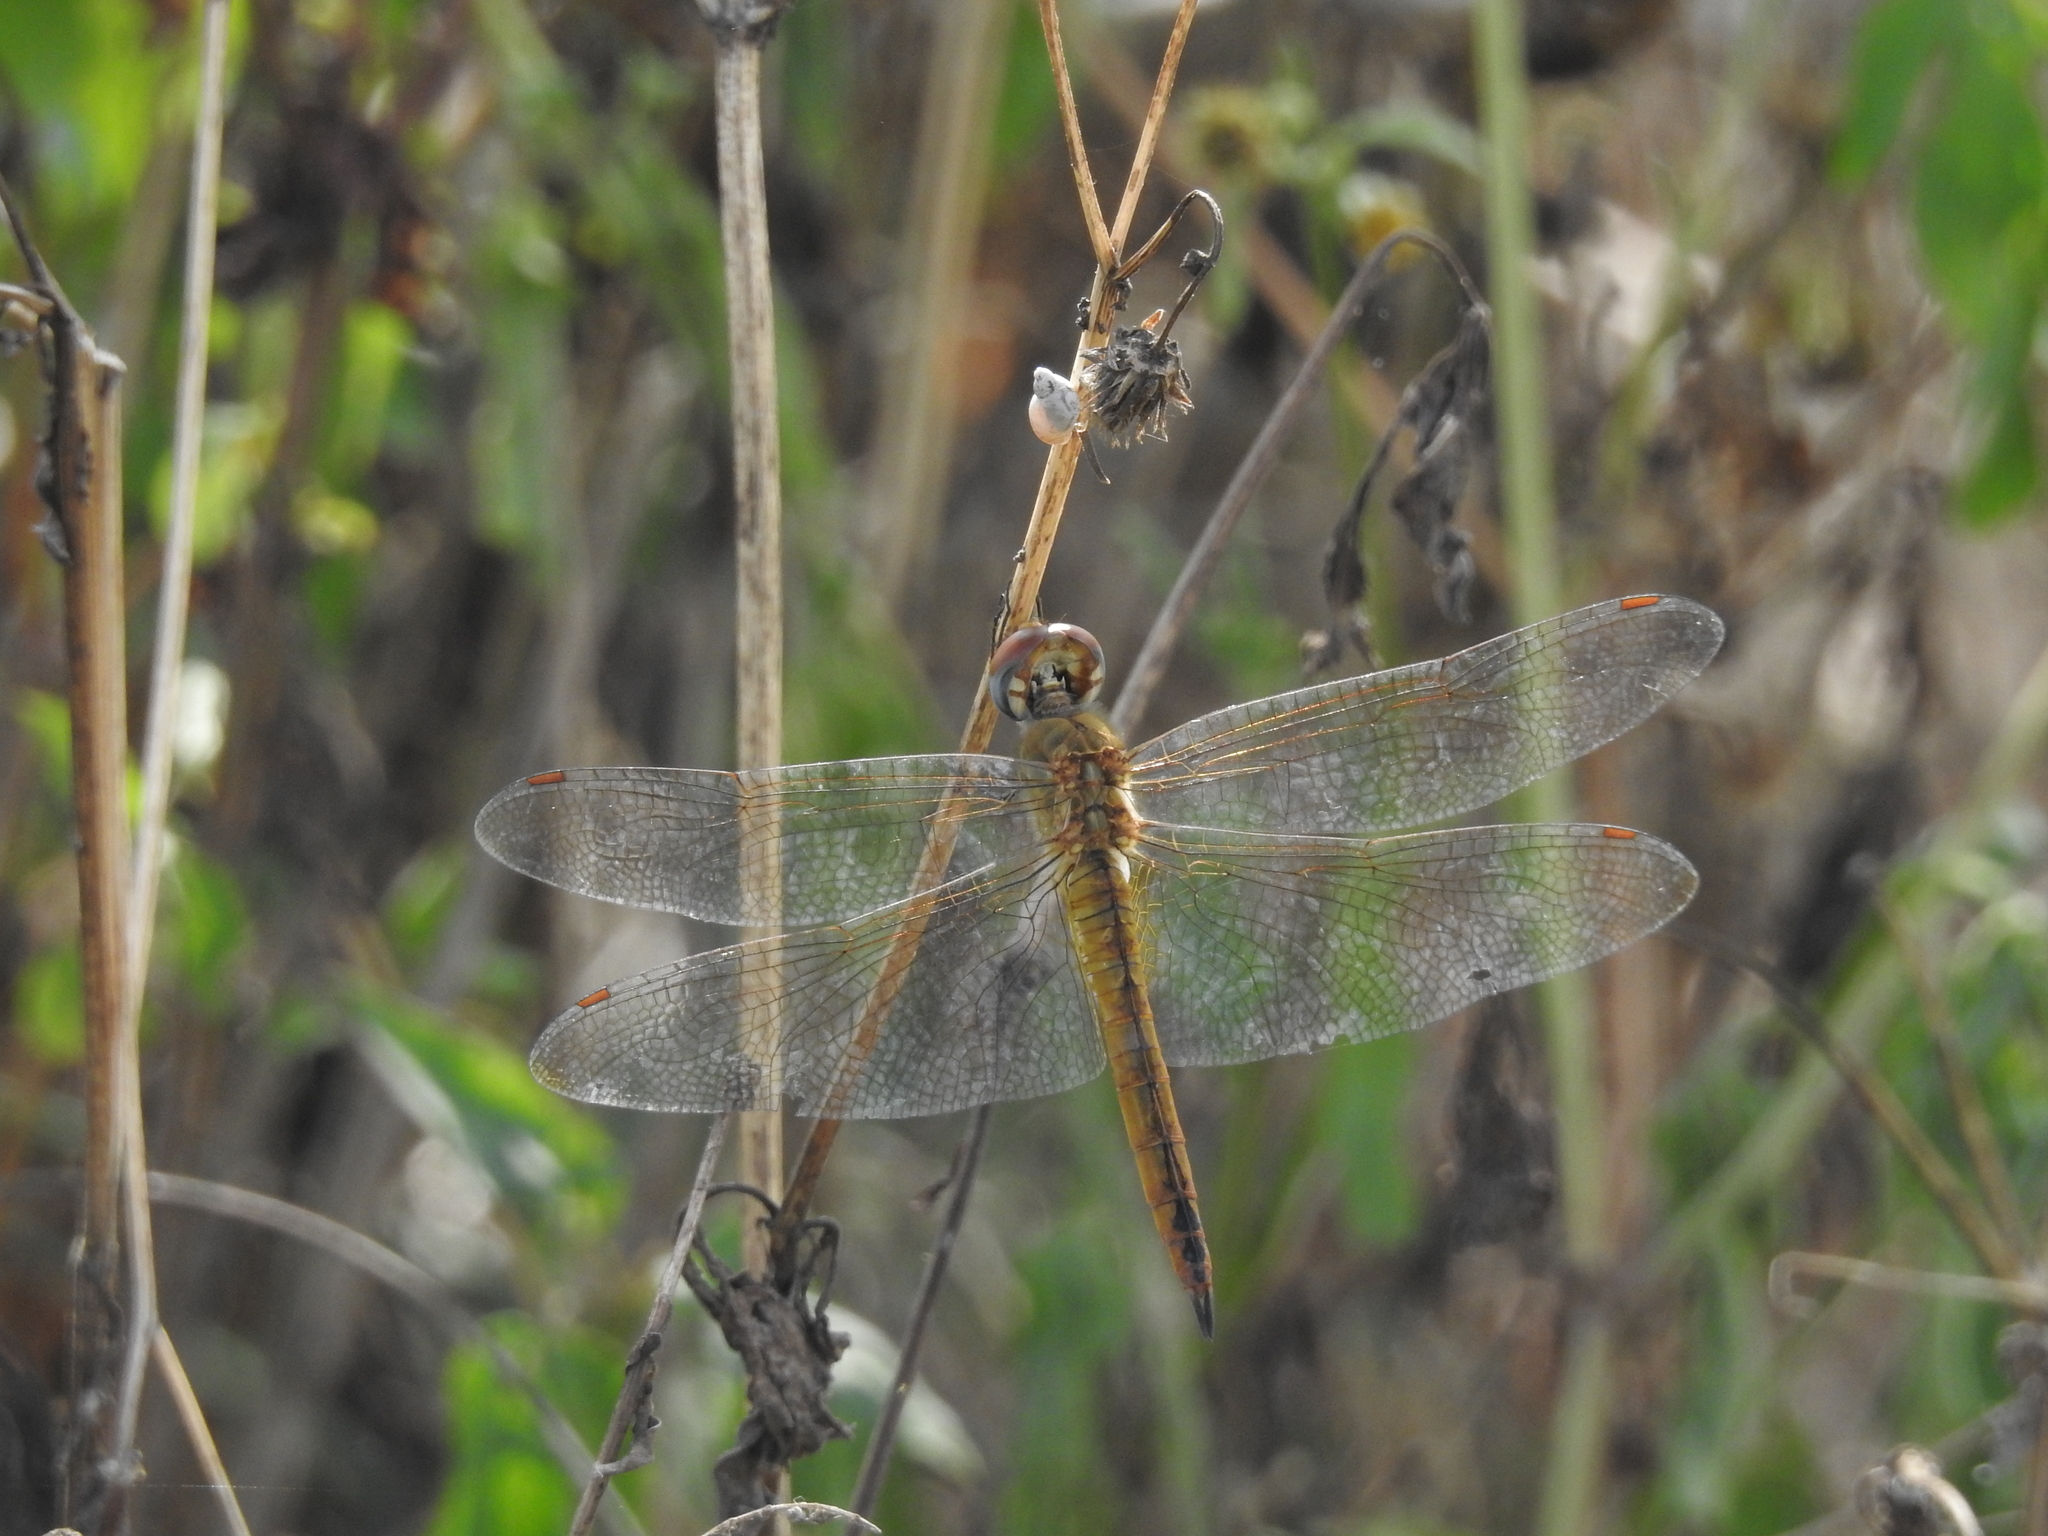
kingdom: Animalia
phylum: Arthropoda
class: Insecta
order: Odonata
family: Libellulidae
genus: Pantala
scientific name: Pantala flavescens
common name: Wandering glider
